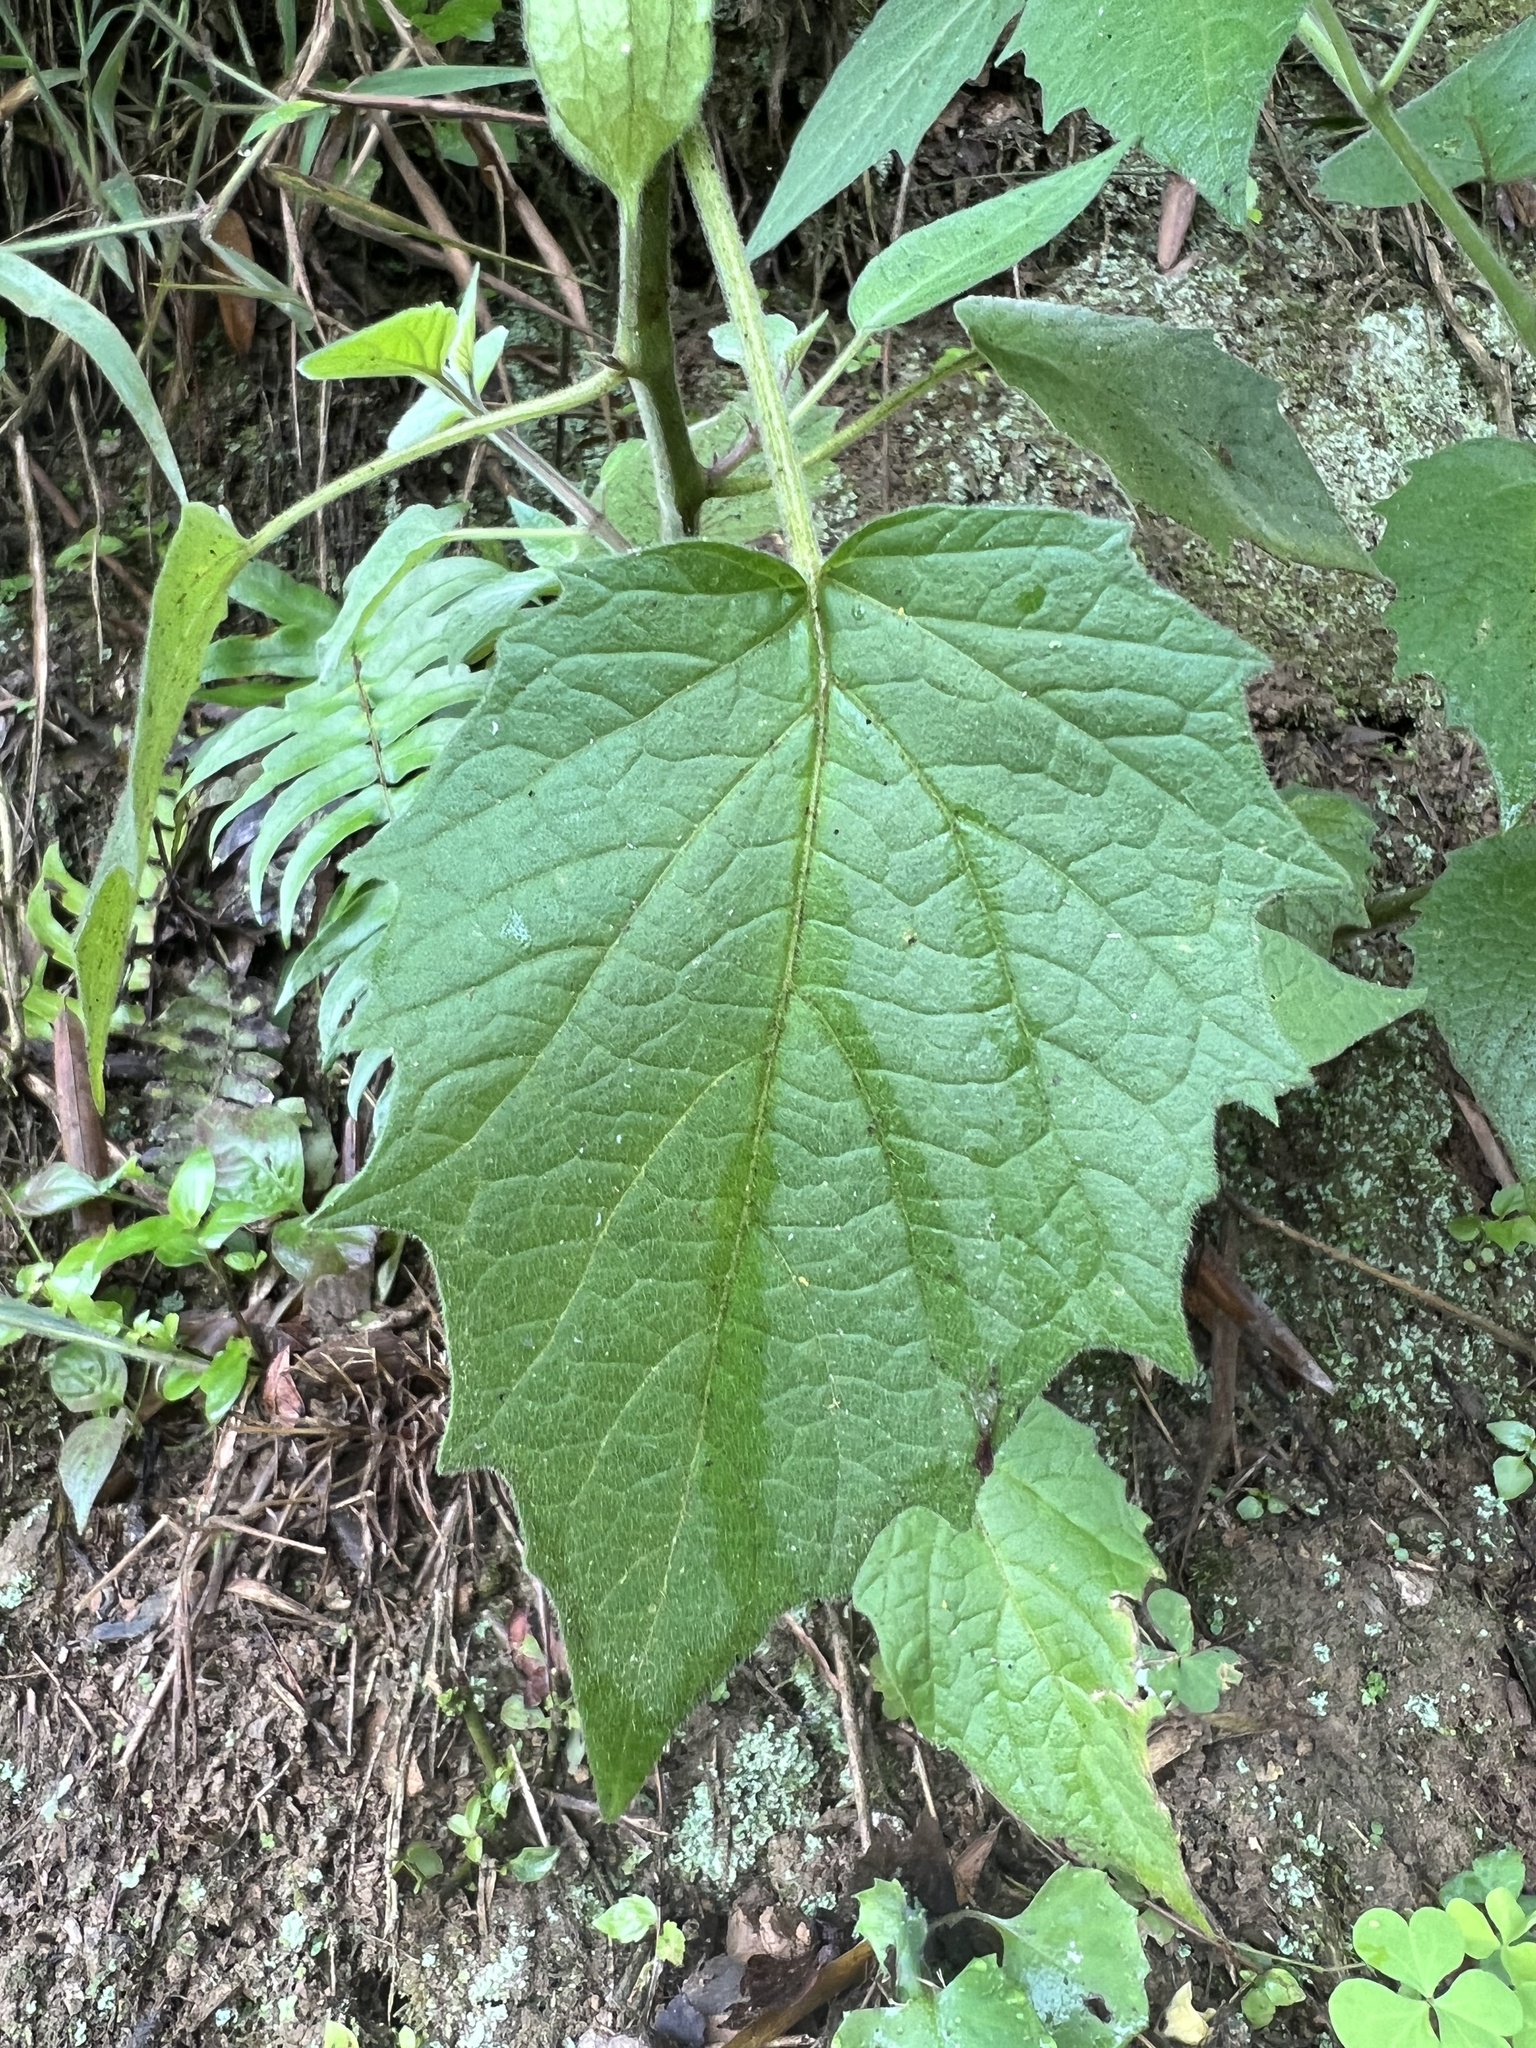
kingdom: Plantae
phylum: Tracheophyta
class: Magnoliopsida
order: Solanales
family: Solanaceae
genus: Physalis
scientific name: Physalis peruviana
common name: Cape-gooseberry
